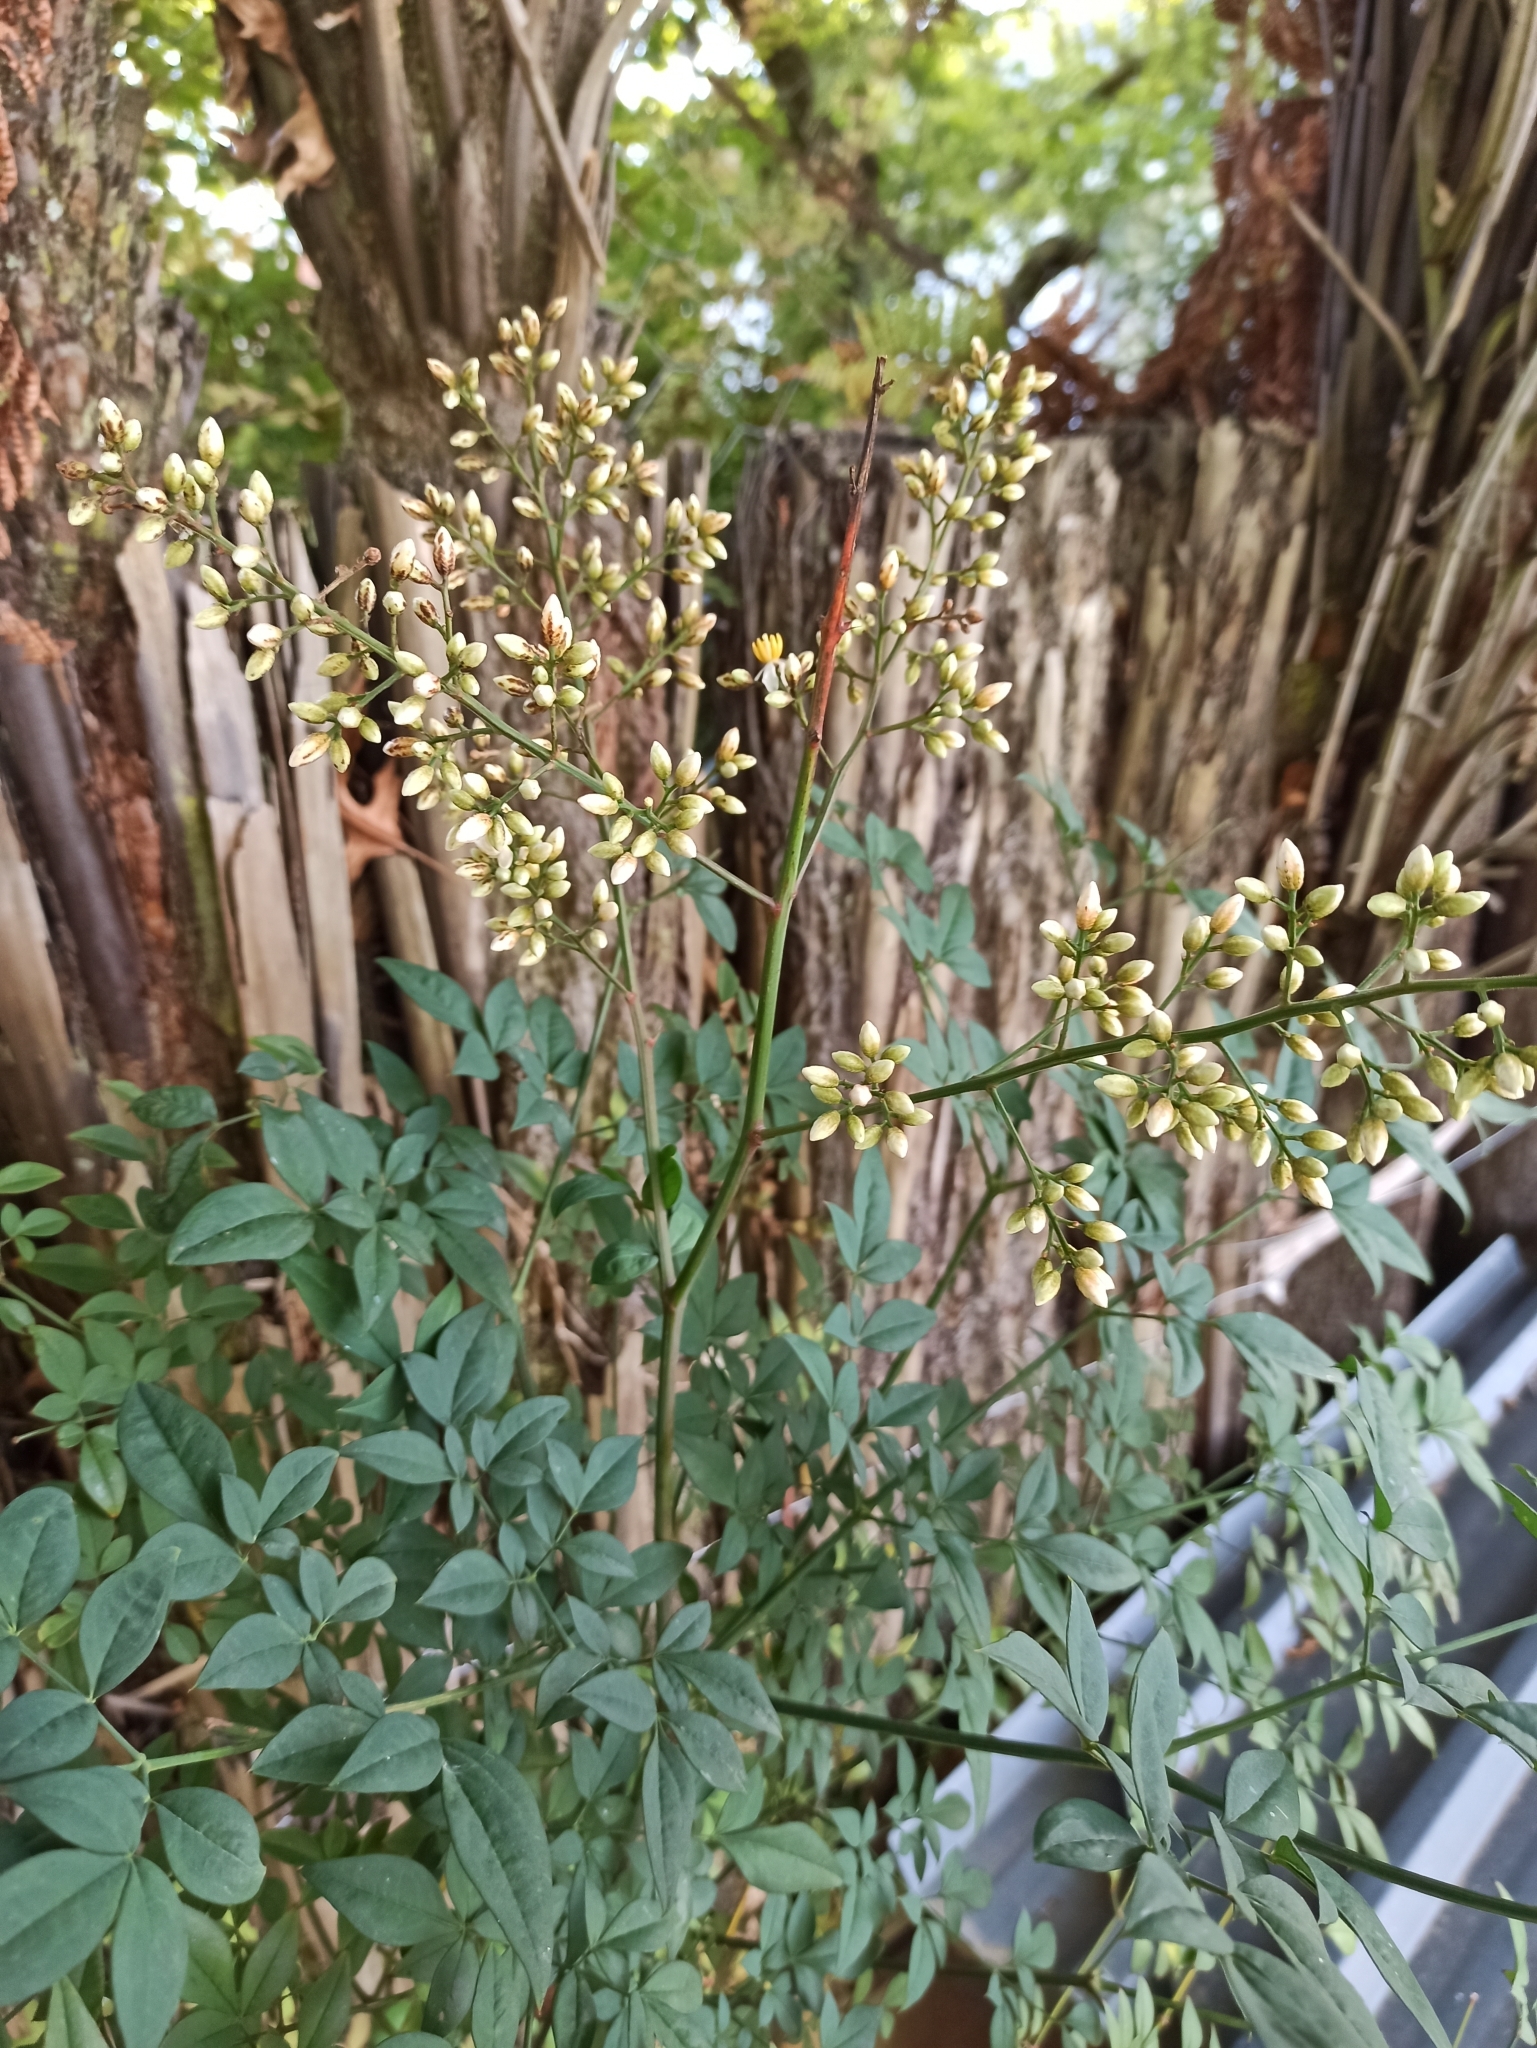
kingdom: Plantae
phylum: Tracheophyta
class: Magnoliopsida
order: Ranunculales
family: Berberidaceae
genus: Nandina
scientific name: Nandina domestica
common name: Sacred bamboo
